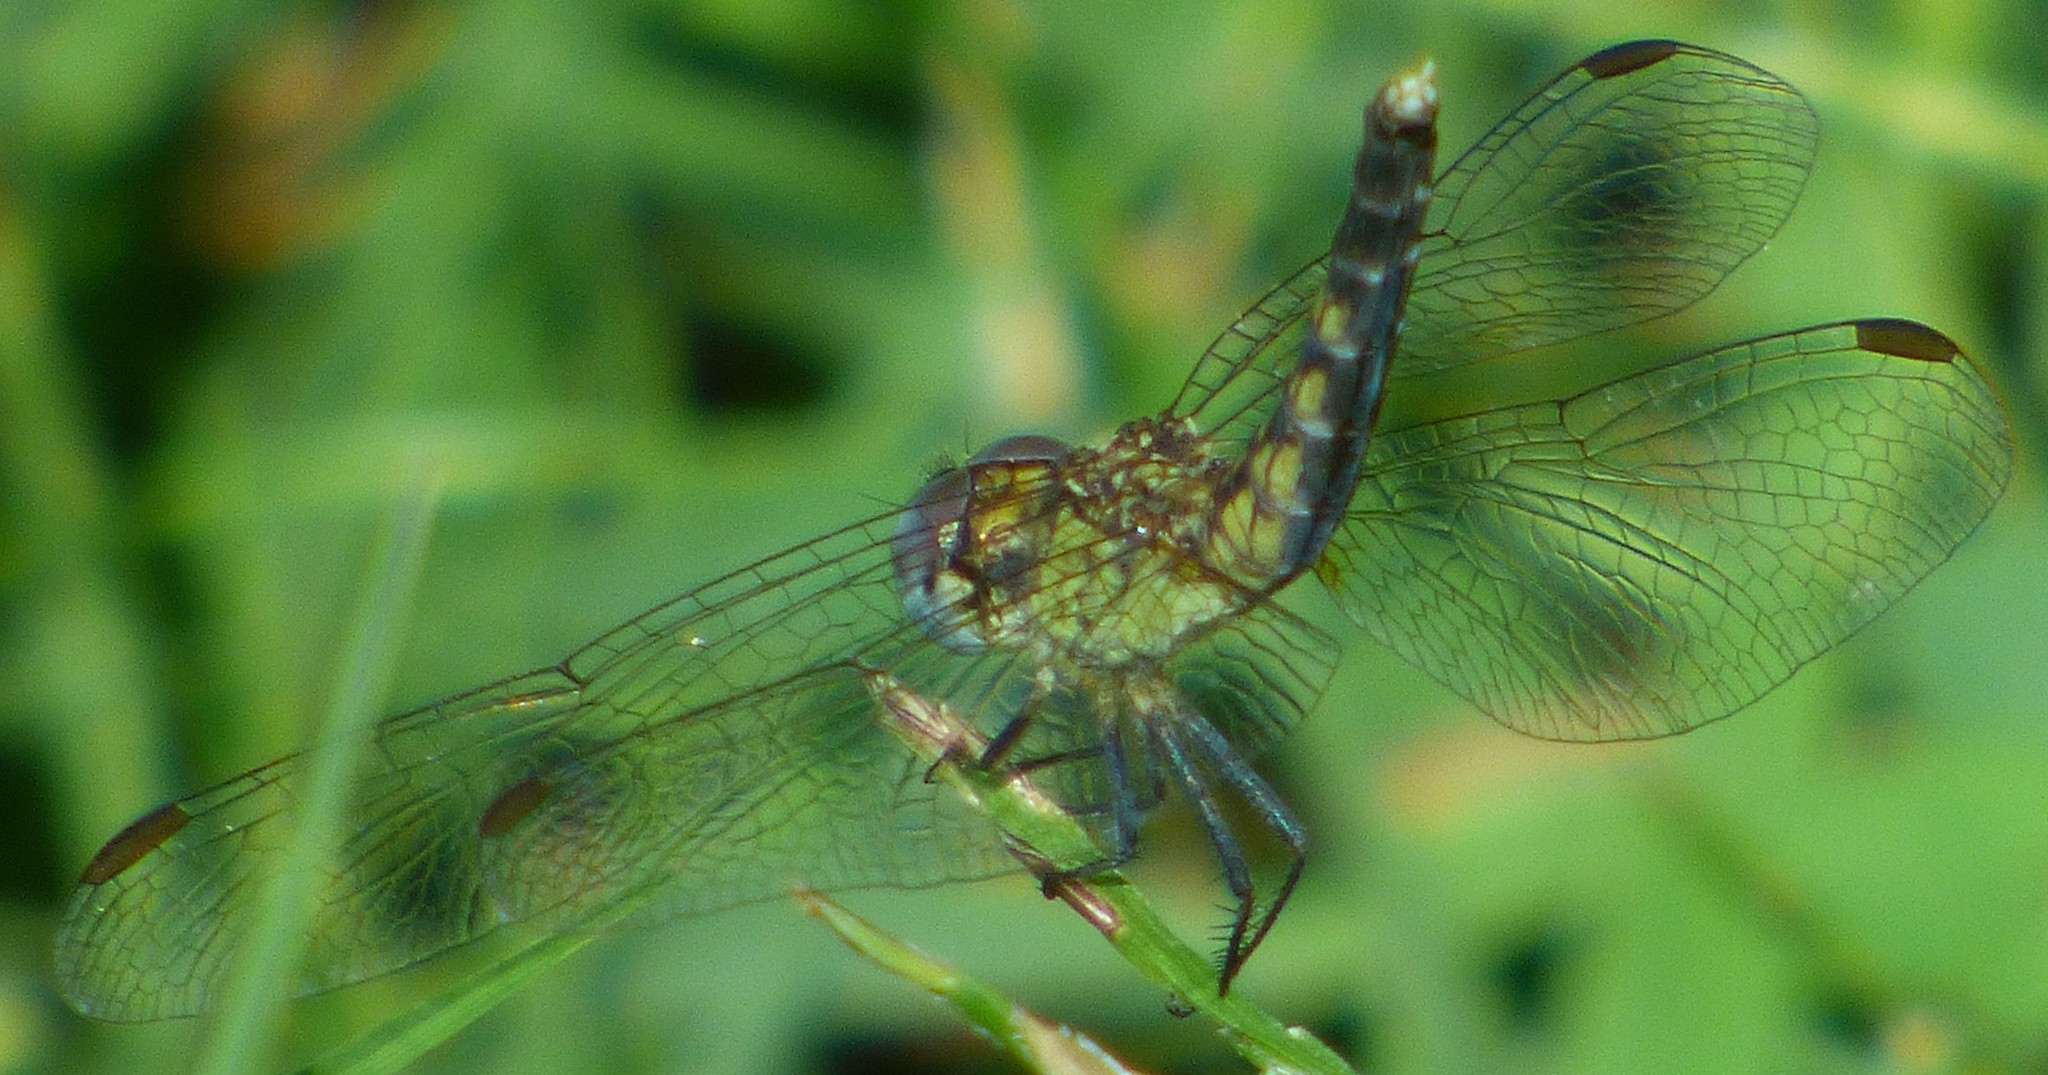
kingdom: Animalia
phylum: Arthropoda
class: Insecta
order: Odonata
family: Libellulidae
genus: Erythrodiplax
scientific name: Erythrodiplax minuscula
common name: Little blue dragonlet
